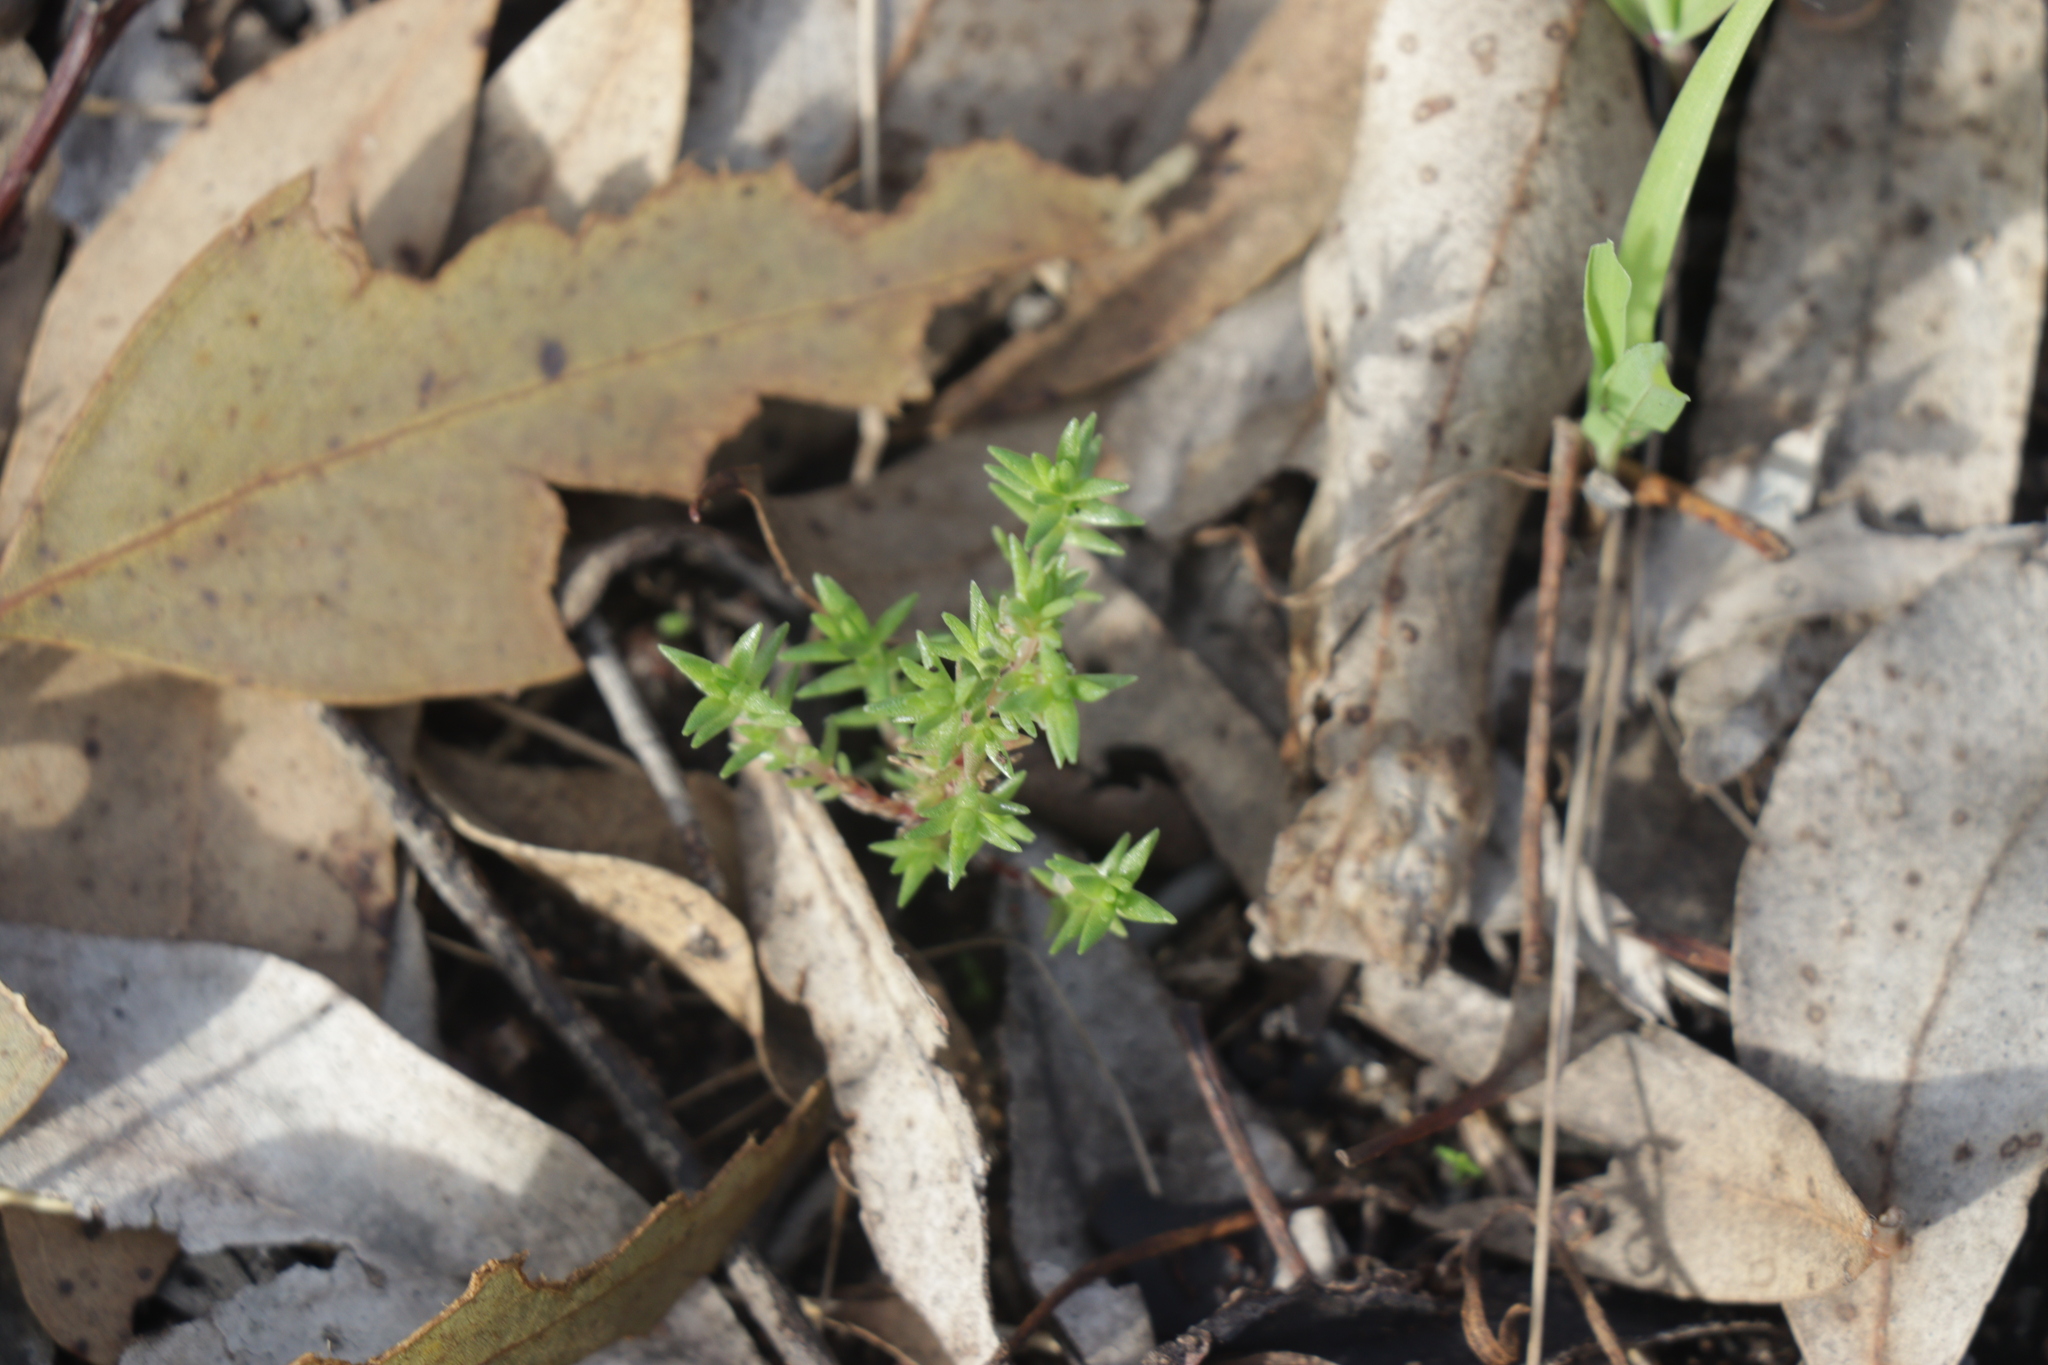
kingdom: Plantae
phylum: Tracheophyta
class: Magnoliopsida
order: Saxifragales
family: Crassulaceae
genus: Crassula
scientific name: Crassula sieberiana
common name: Siberian pygmyweed
